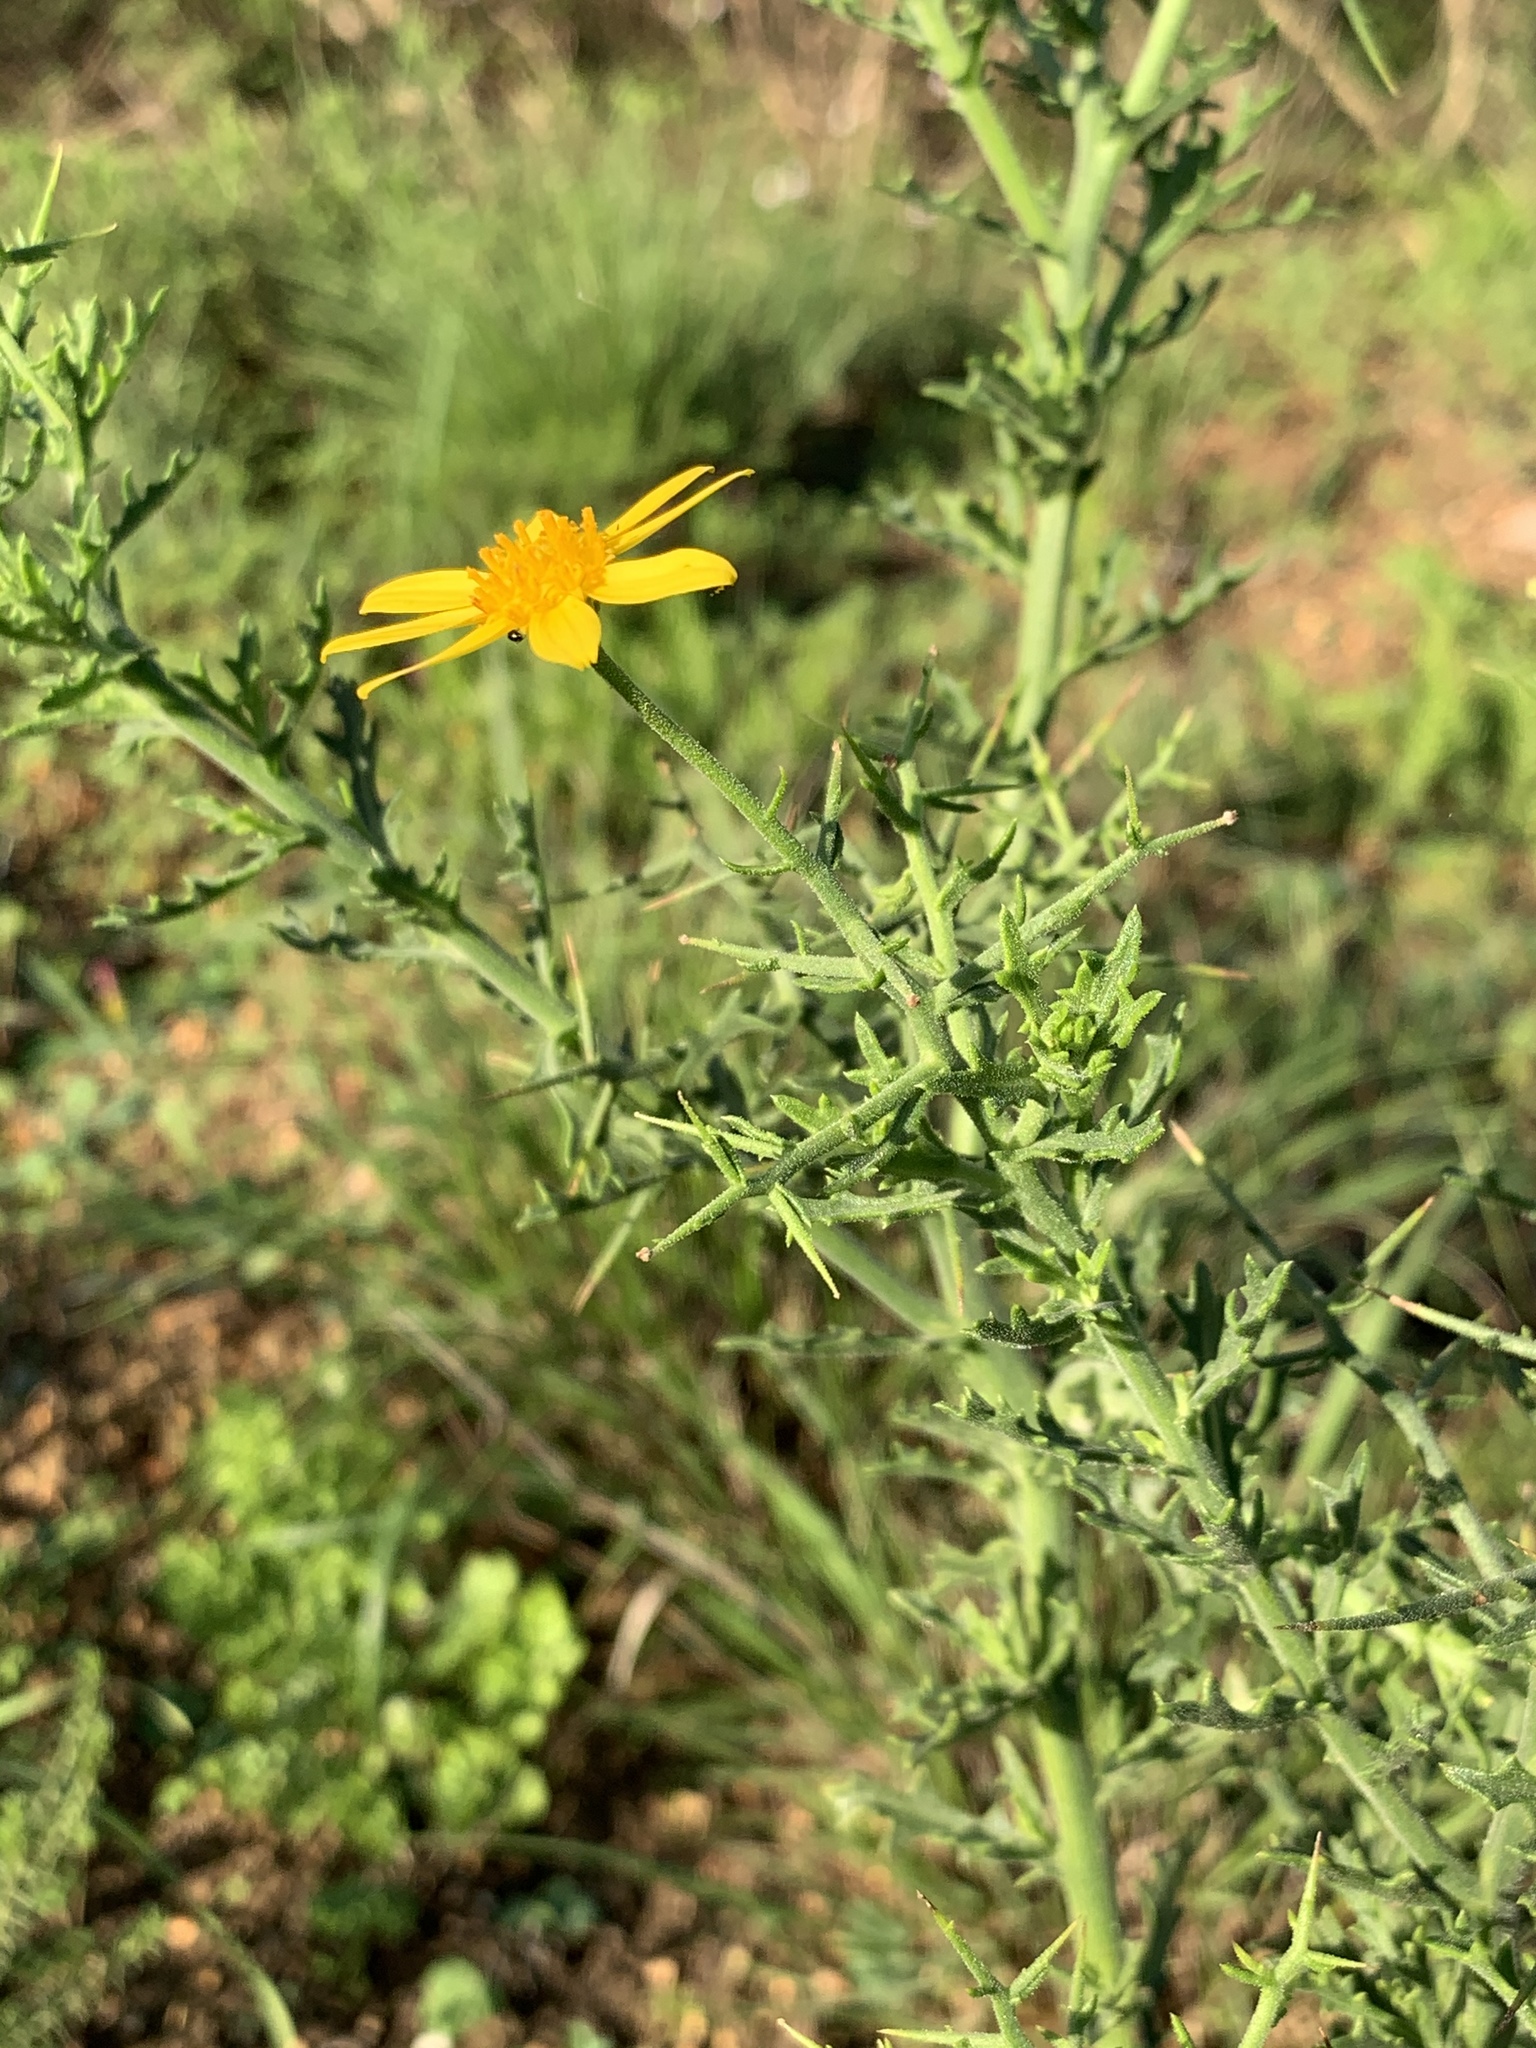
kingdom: Plantae
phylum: Tracheophyta
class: Magnoliopsida
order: Asterales
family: Asteraceae
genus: Osteospermum
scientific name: Osteospermum spinosum
